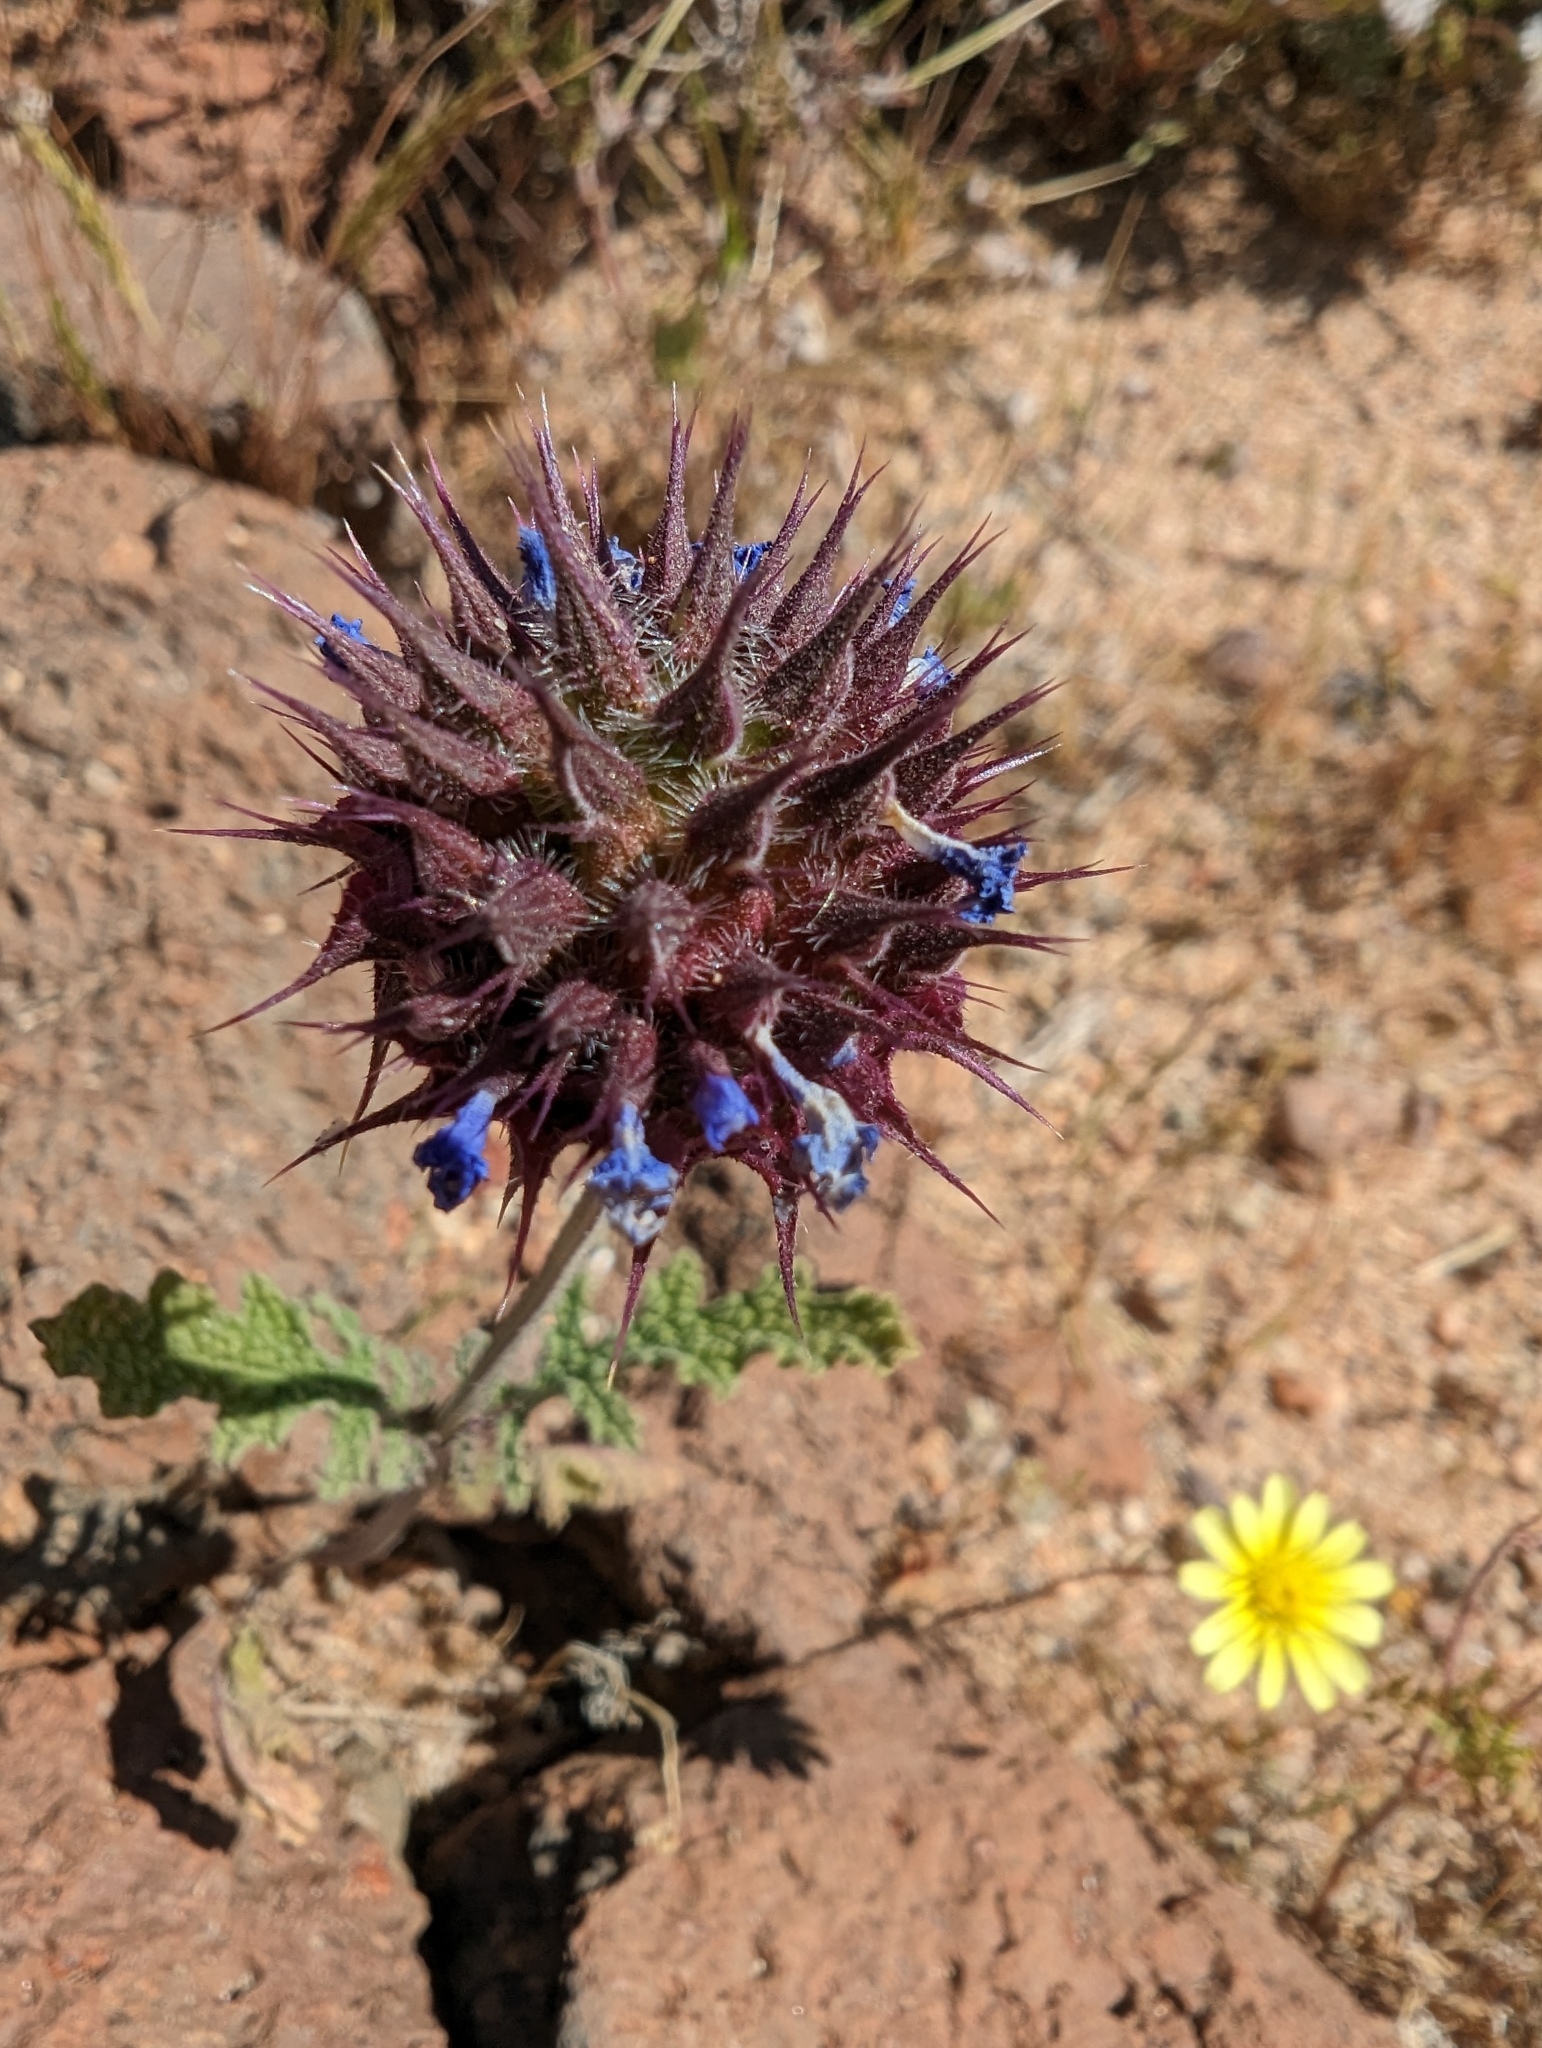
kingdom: Plantae
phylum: Tracheophyta
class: Magnoliopsida
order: Lamiales
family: Lamiaceae
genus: Salvia
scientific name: Salvia columbariae
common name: Chia
